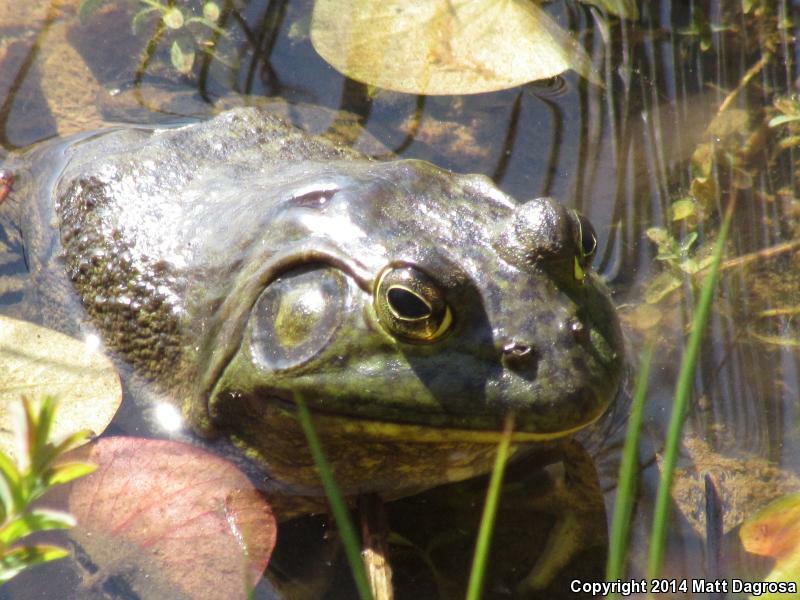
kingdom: Animalia
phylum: Chordata
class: Amphibia
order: Anura
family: Ranidae
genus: Lithobates
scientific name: Lithobates catesbeianus
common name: American bullfrog
